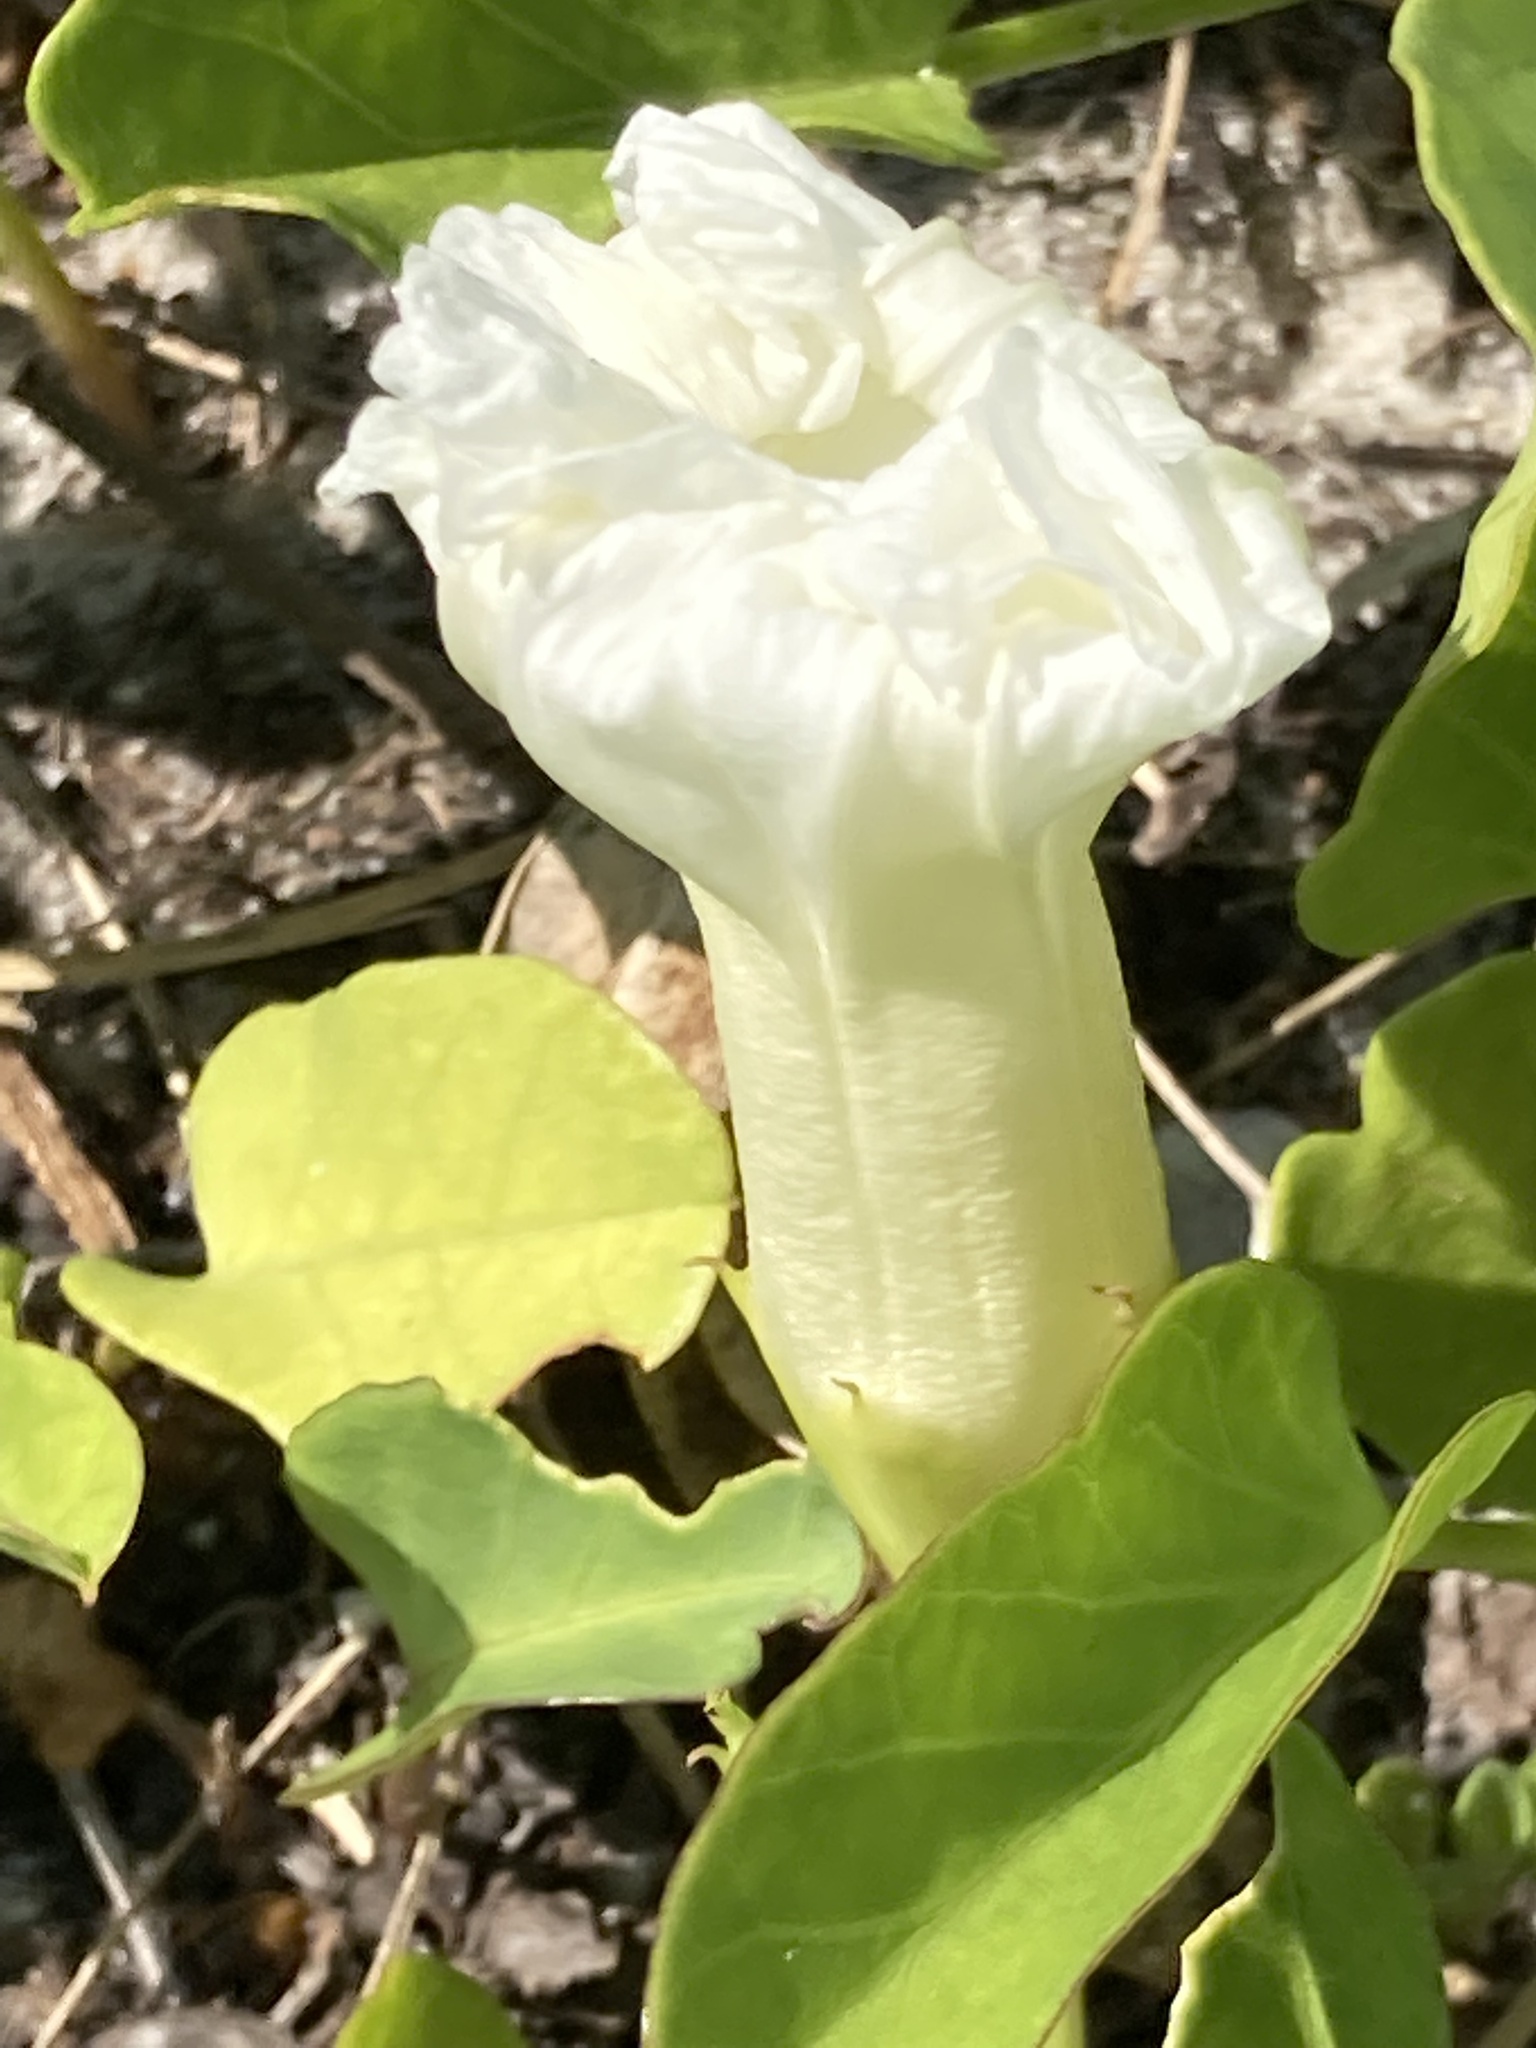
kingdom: Plantae
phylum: Tracheophyta
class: Magnoliopsida
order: Solanales
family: Convolvulaceae
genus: Ipomoea
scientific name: Ipomoea imperati
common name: Fiddle-leaf morning-glory
